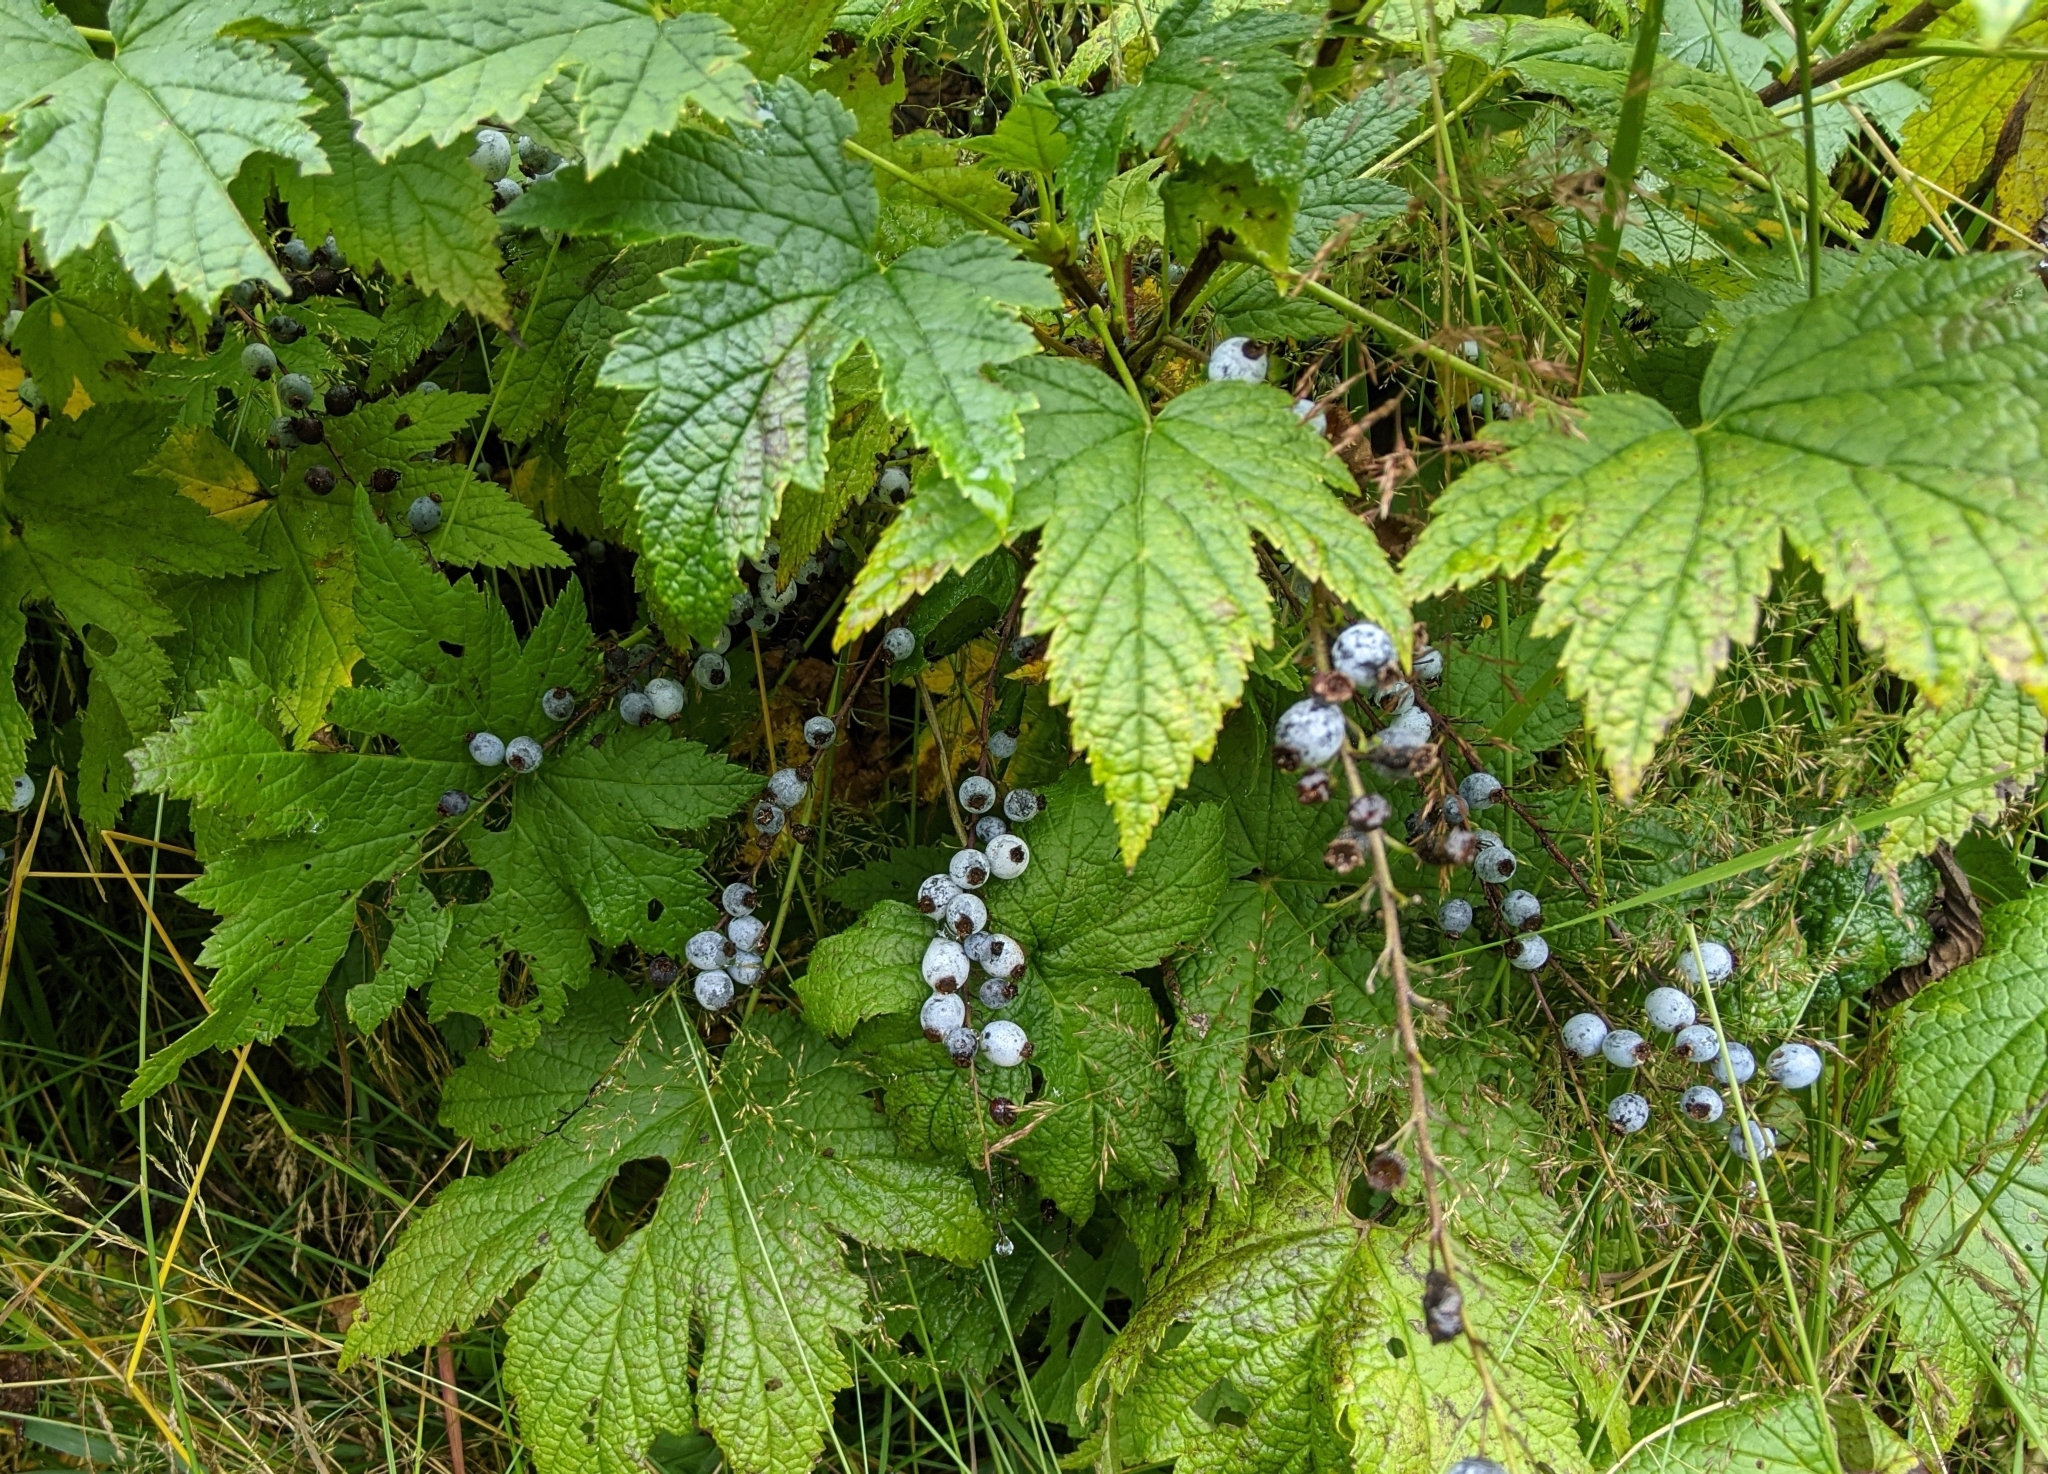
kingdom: Plantae
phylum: Tracheophyta
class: Magnoliopsida
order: Saxifragales
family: Grossulariaceae
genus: Ribes
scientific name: Ribes bracteosum
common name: California black currant
